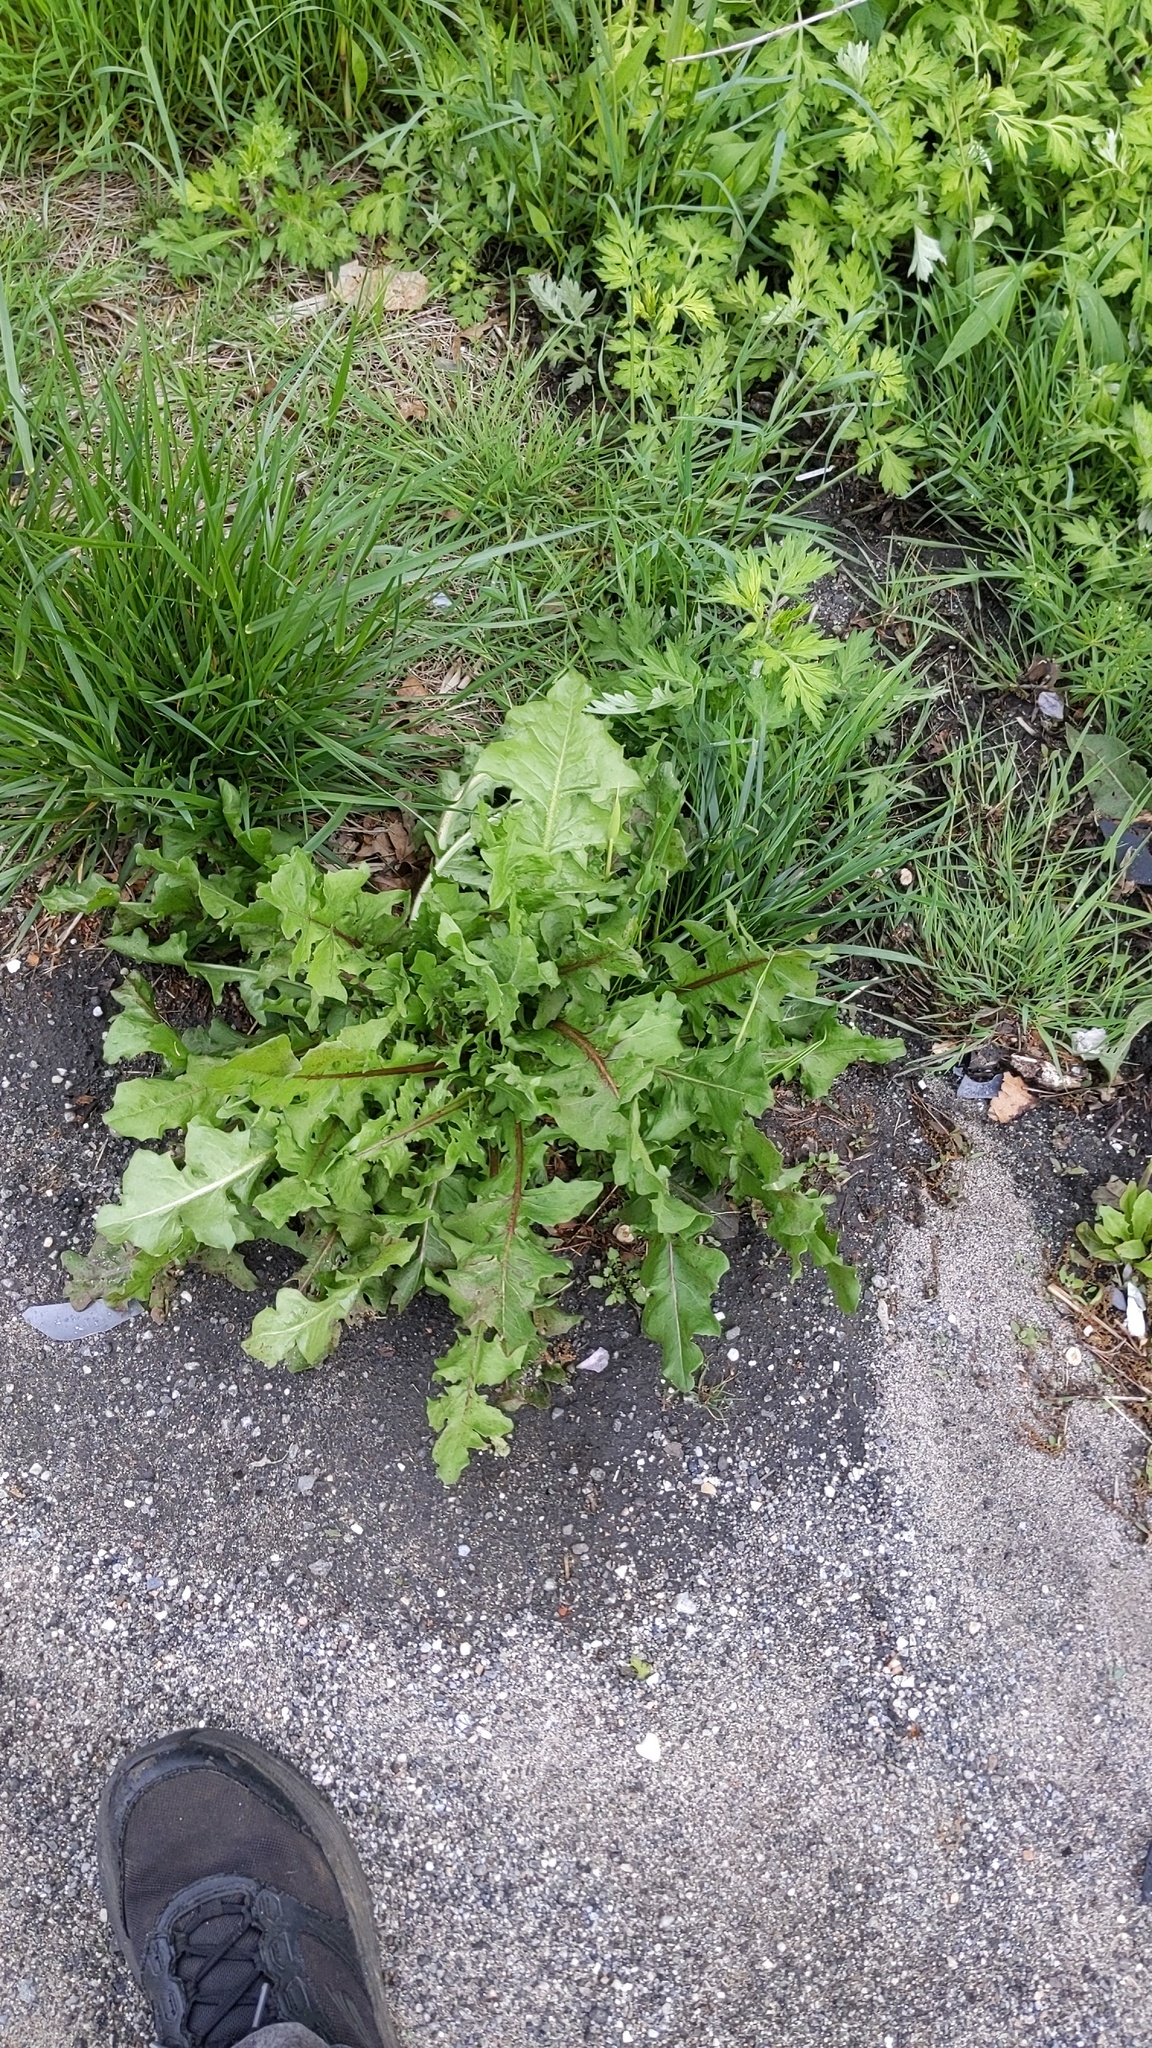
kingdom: Plantae
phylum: Tracheophyta
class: Magnoliopsida
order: Asterales
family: Asteraceae
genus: Taraxacum
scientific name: Taraxacum officinale
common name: Common dandelion
